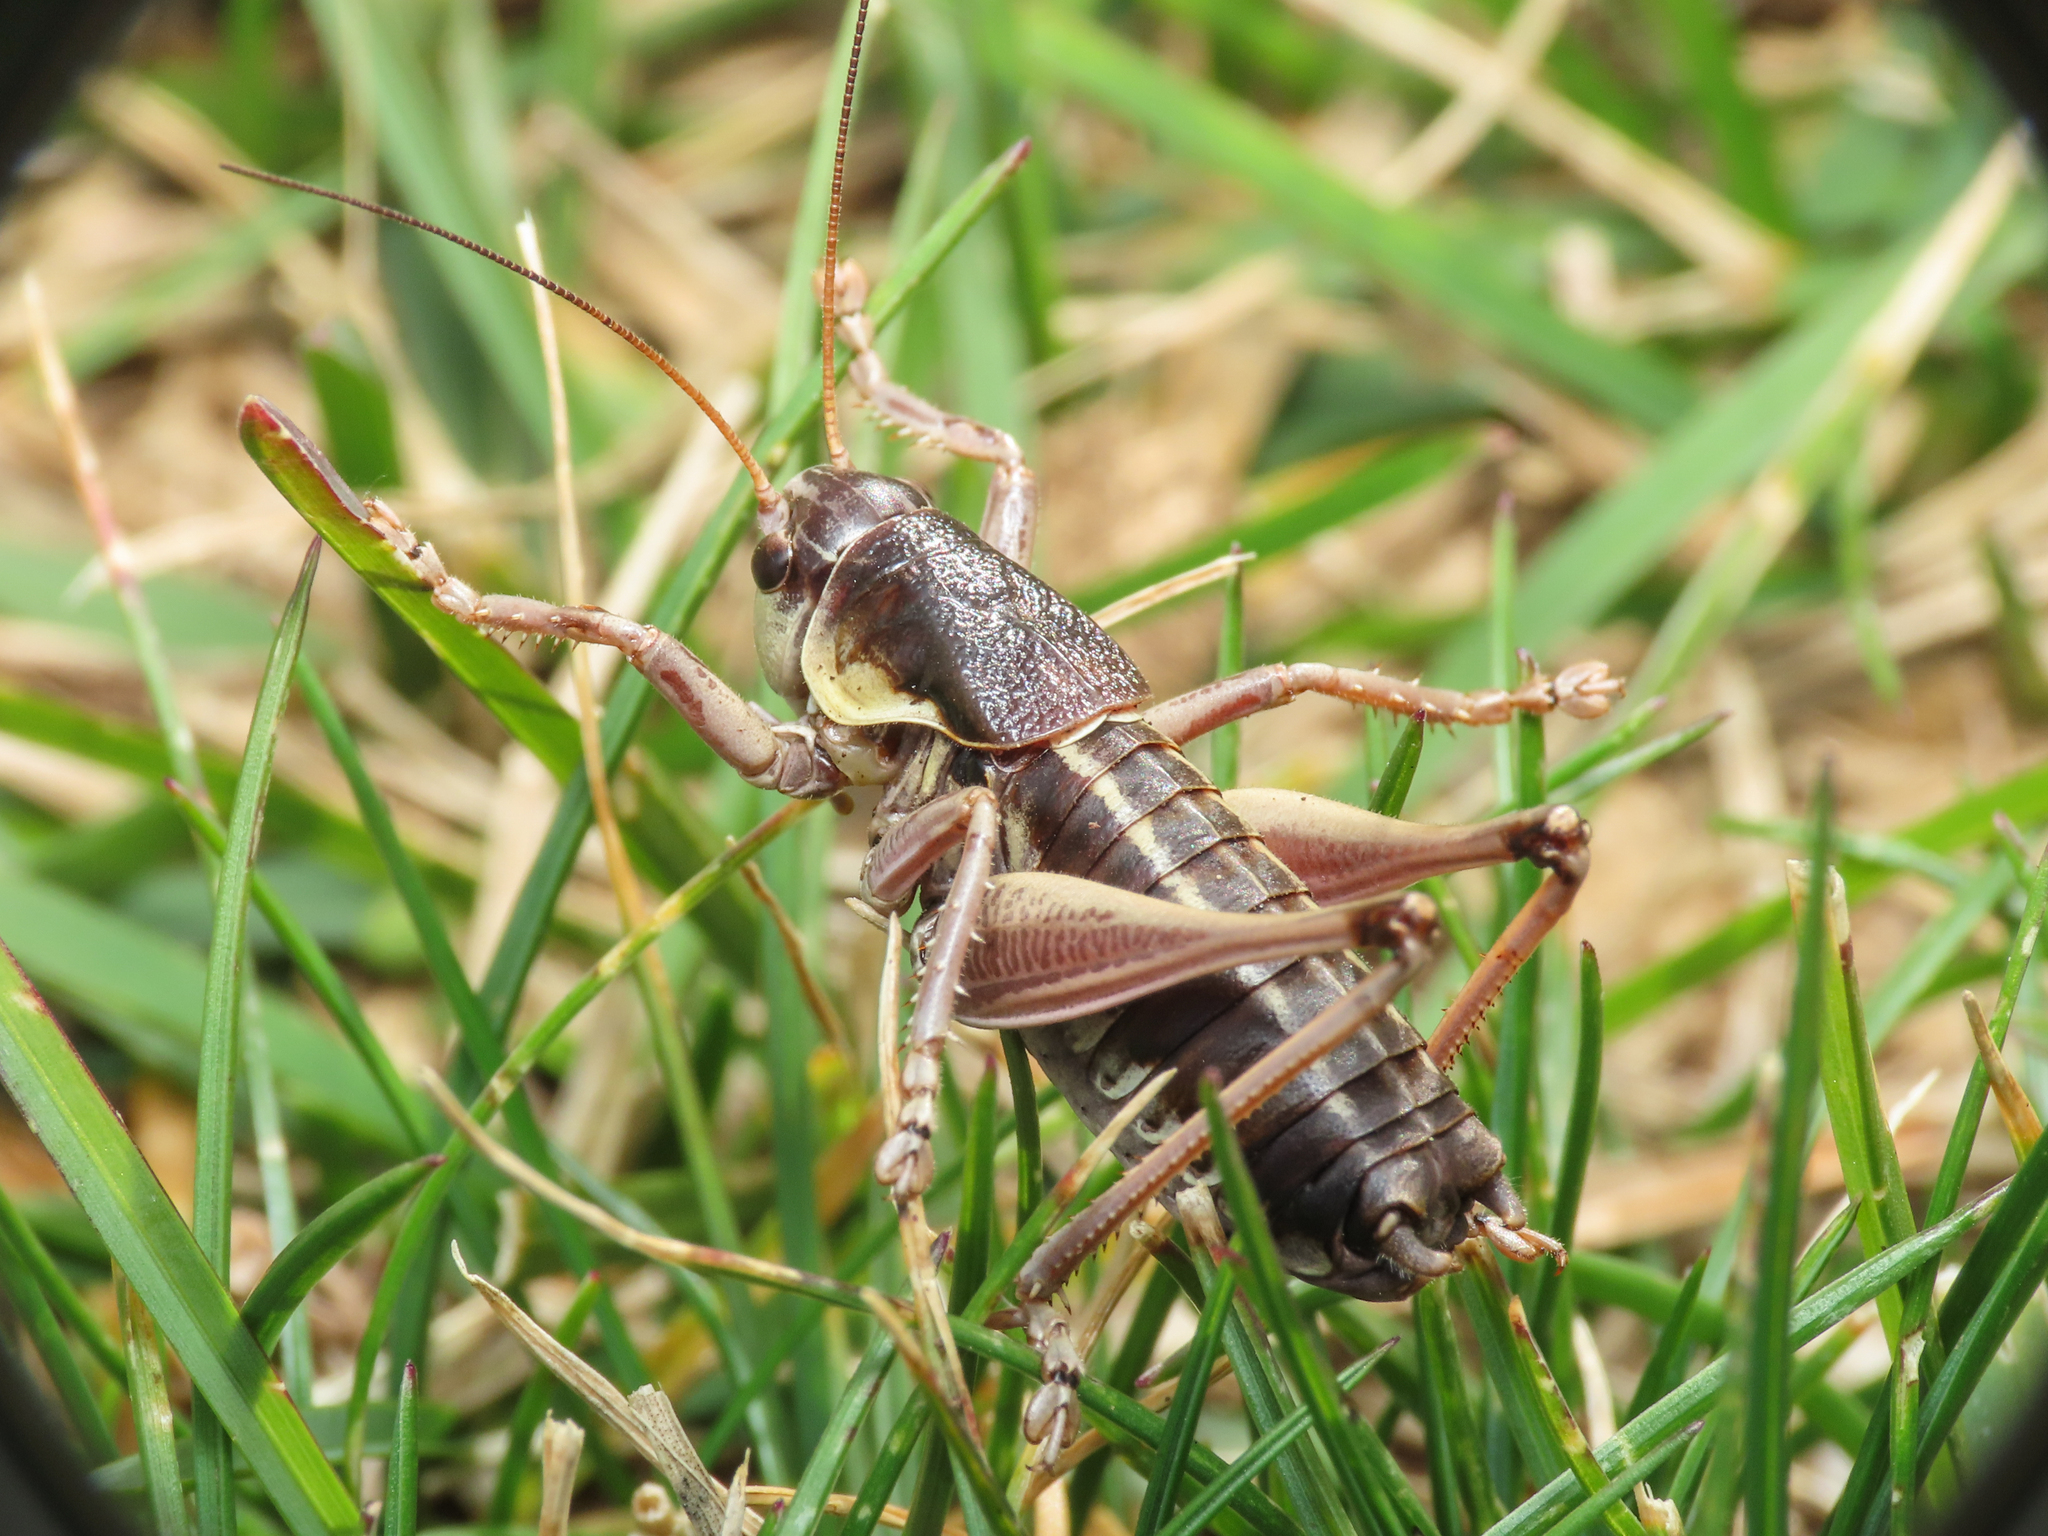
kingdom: Animalia
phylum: Arthropoda
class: Insecta
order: Orthoptera
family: Tettigoniidae
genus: Anonconotus
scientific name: Anonconotus sibyllinus
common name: Sibylline alpine bush-cricket
